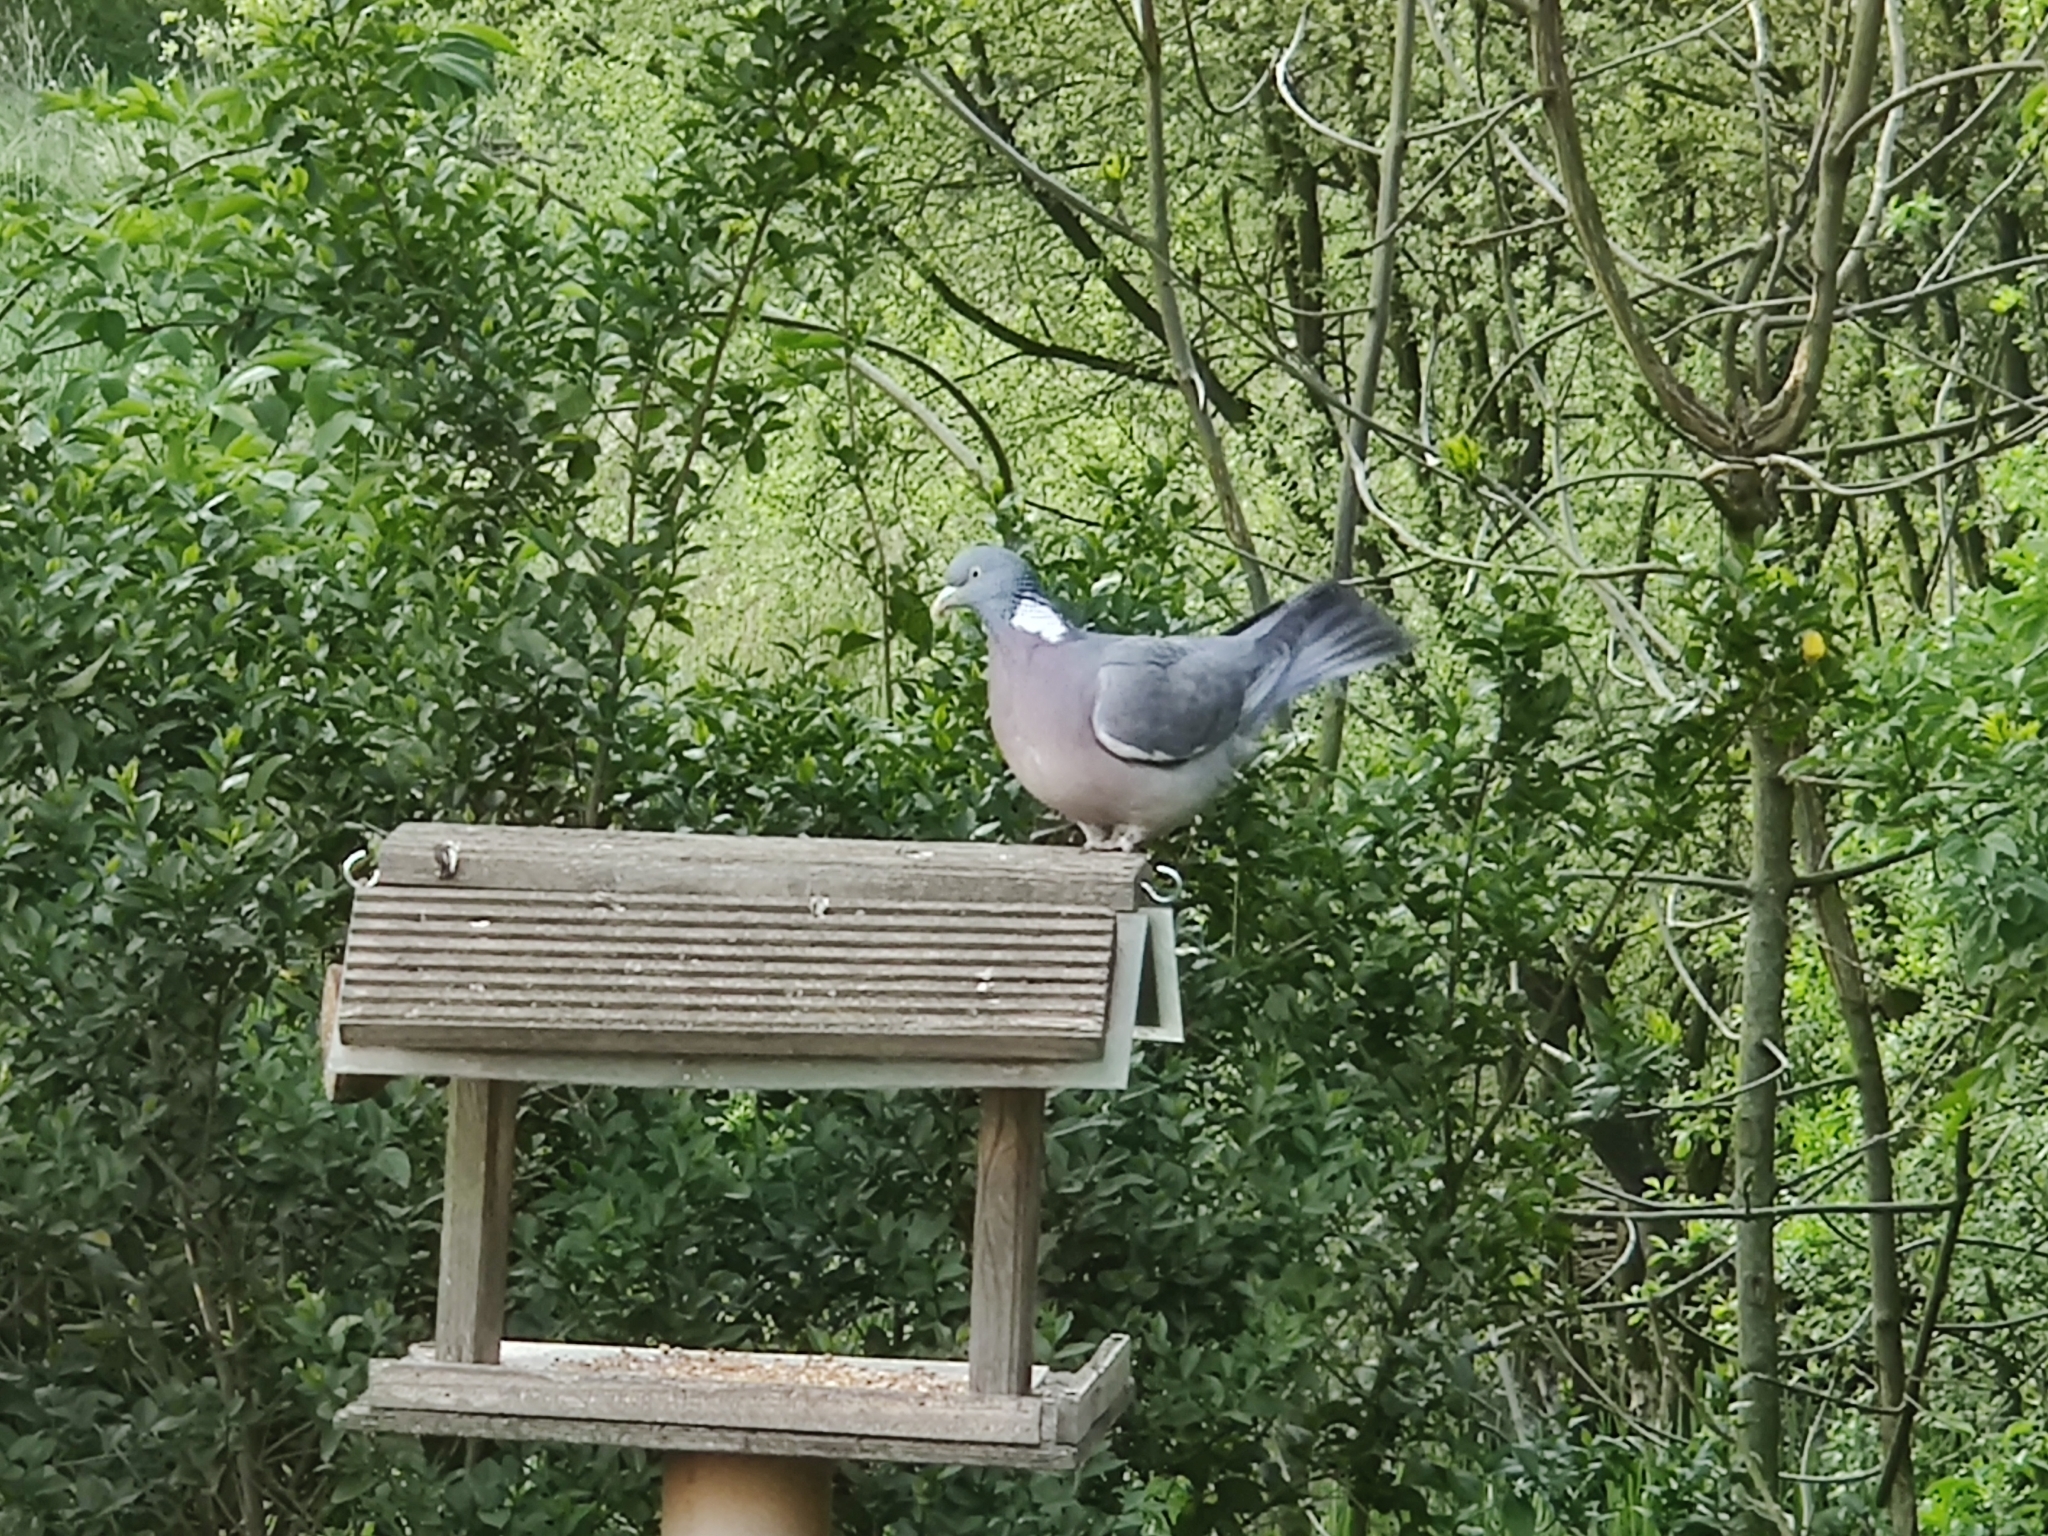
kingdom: Animalia
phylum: Chordata
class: Aves
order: Columbiformes
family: Columbidae
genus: Columba
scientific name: Columba palumbus
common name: Common wood pigeon
